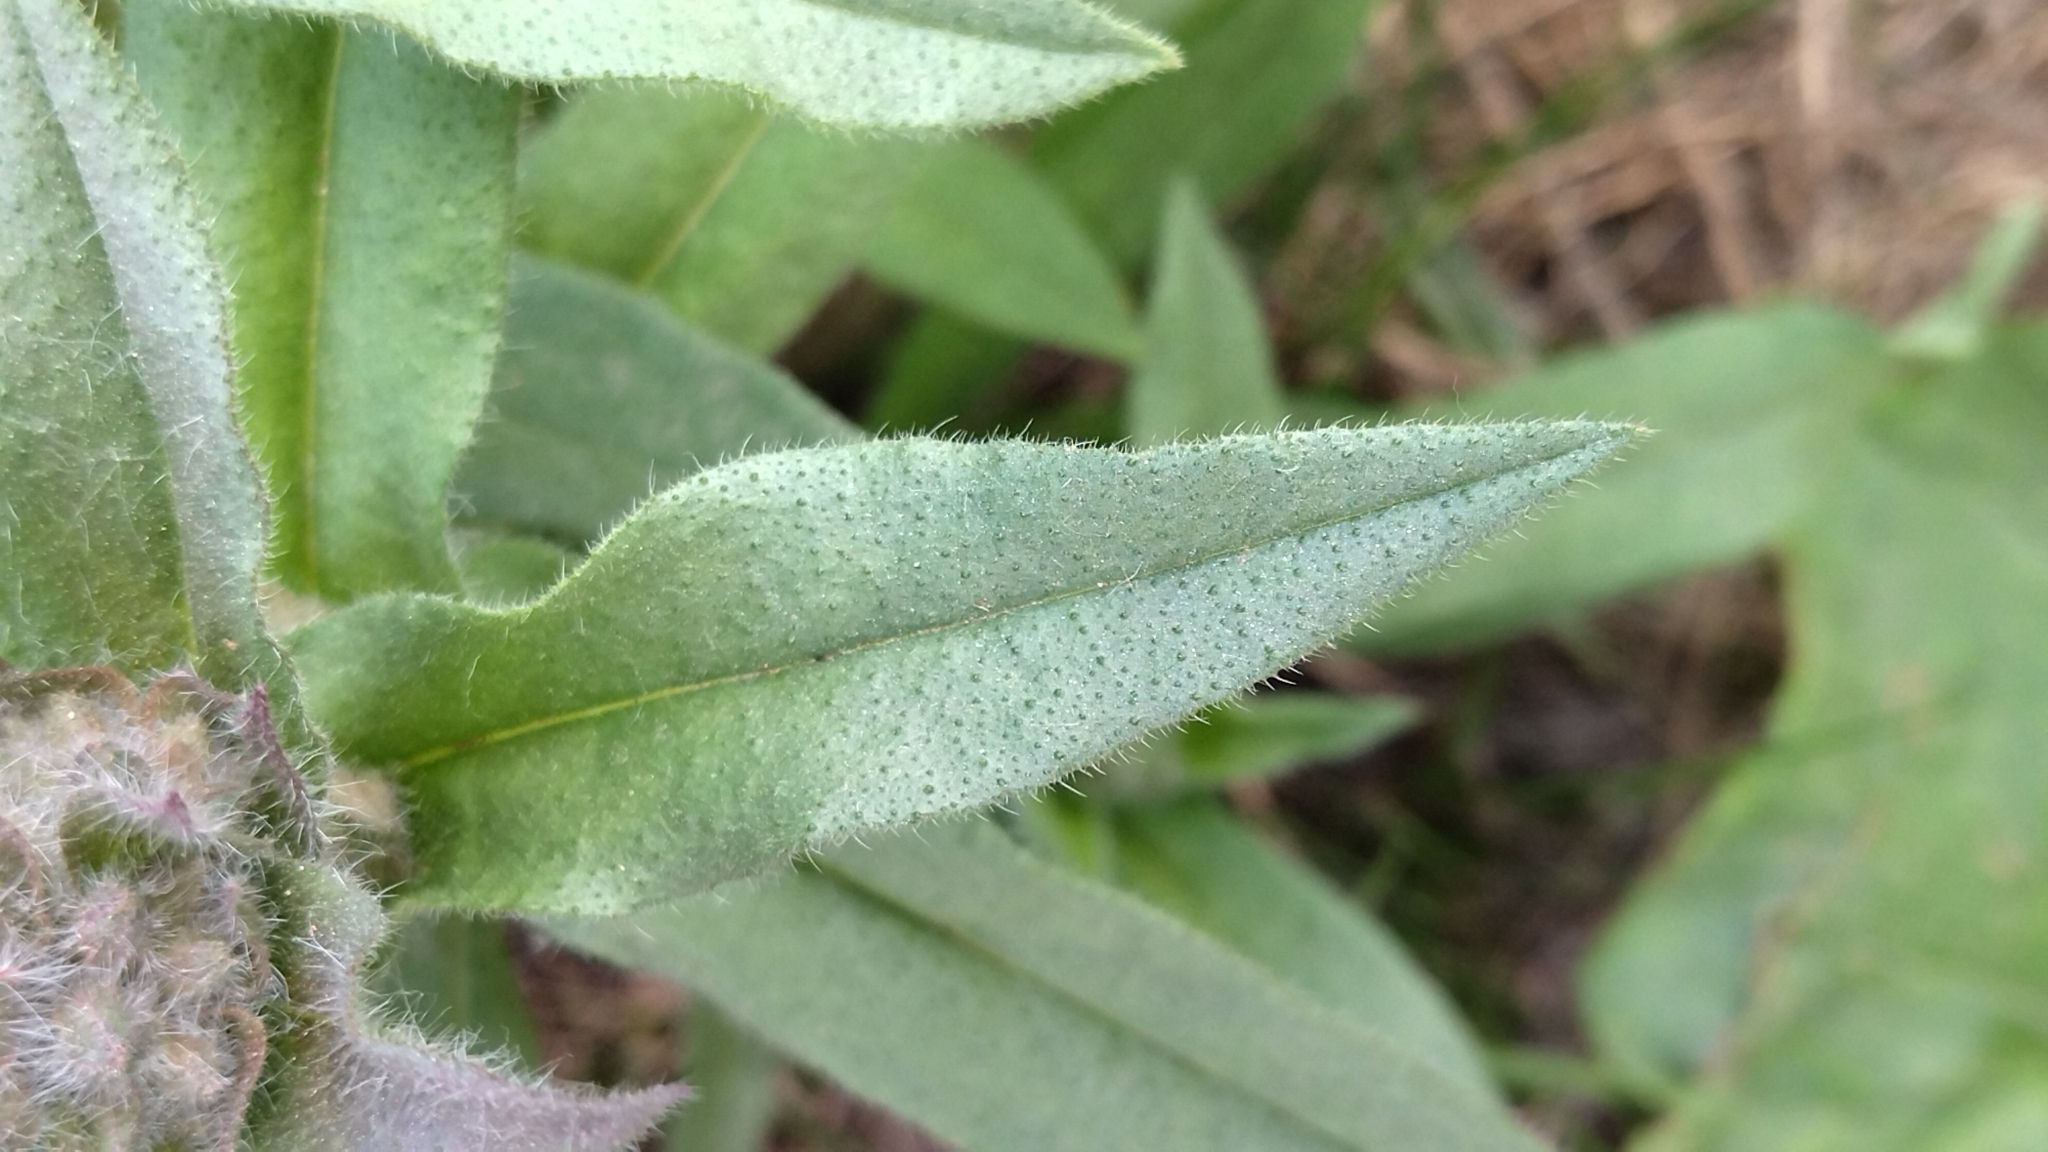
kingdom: Plantae
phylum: Tracheophyta
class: Magnoliopsida
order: Boraginales
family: Boraginaceae
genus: Nonea
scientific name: Nonea pulla
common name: Brown nonea
